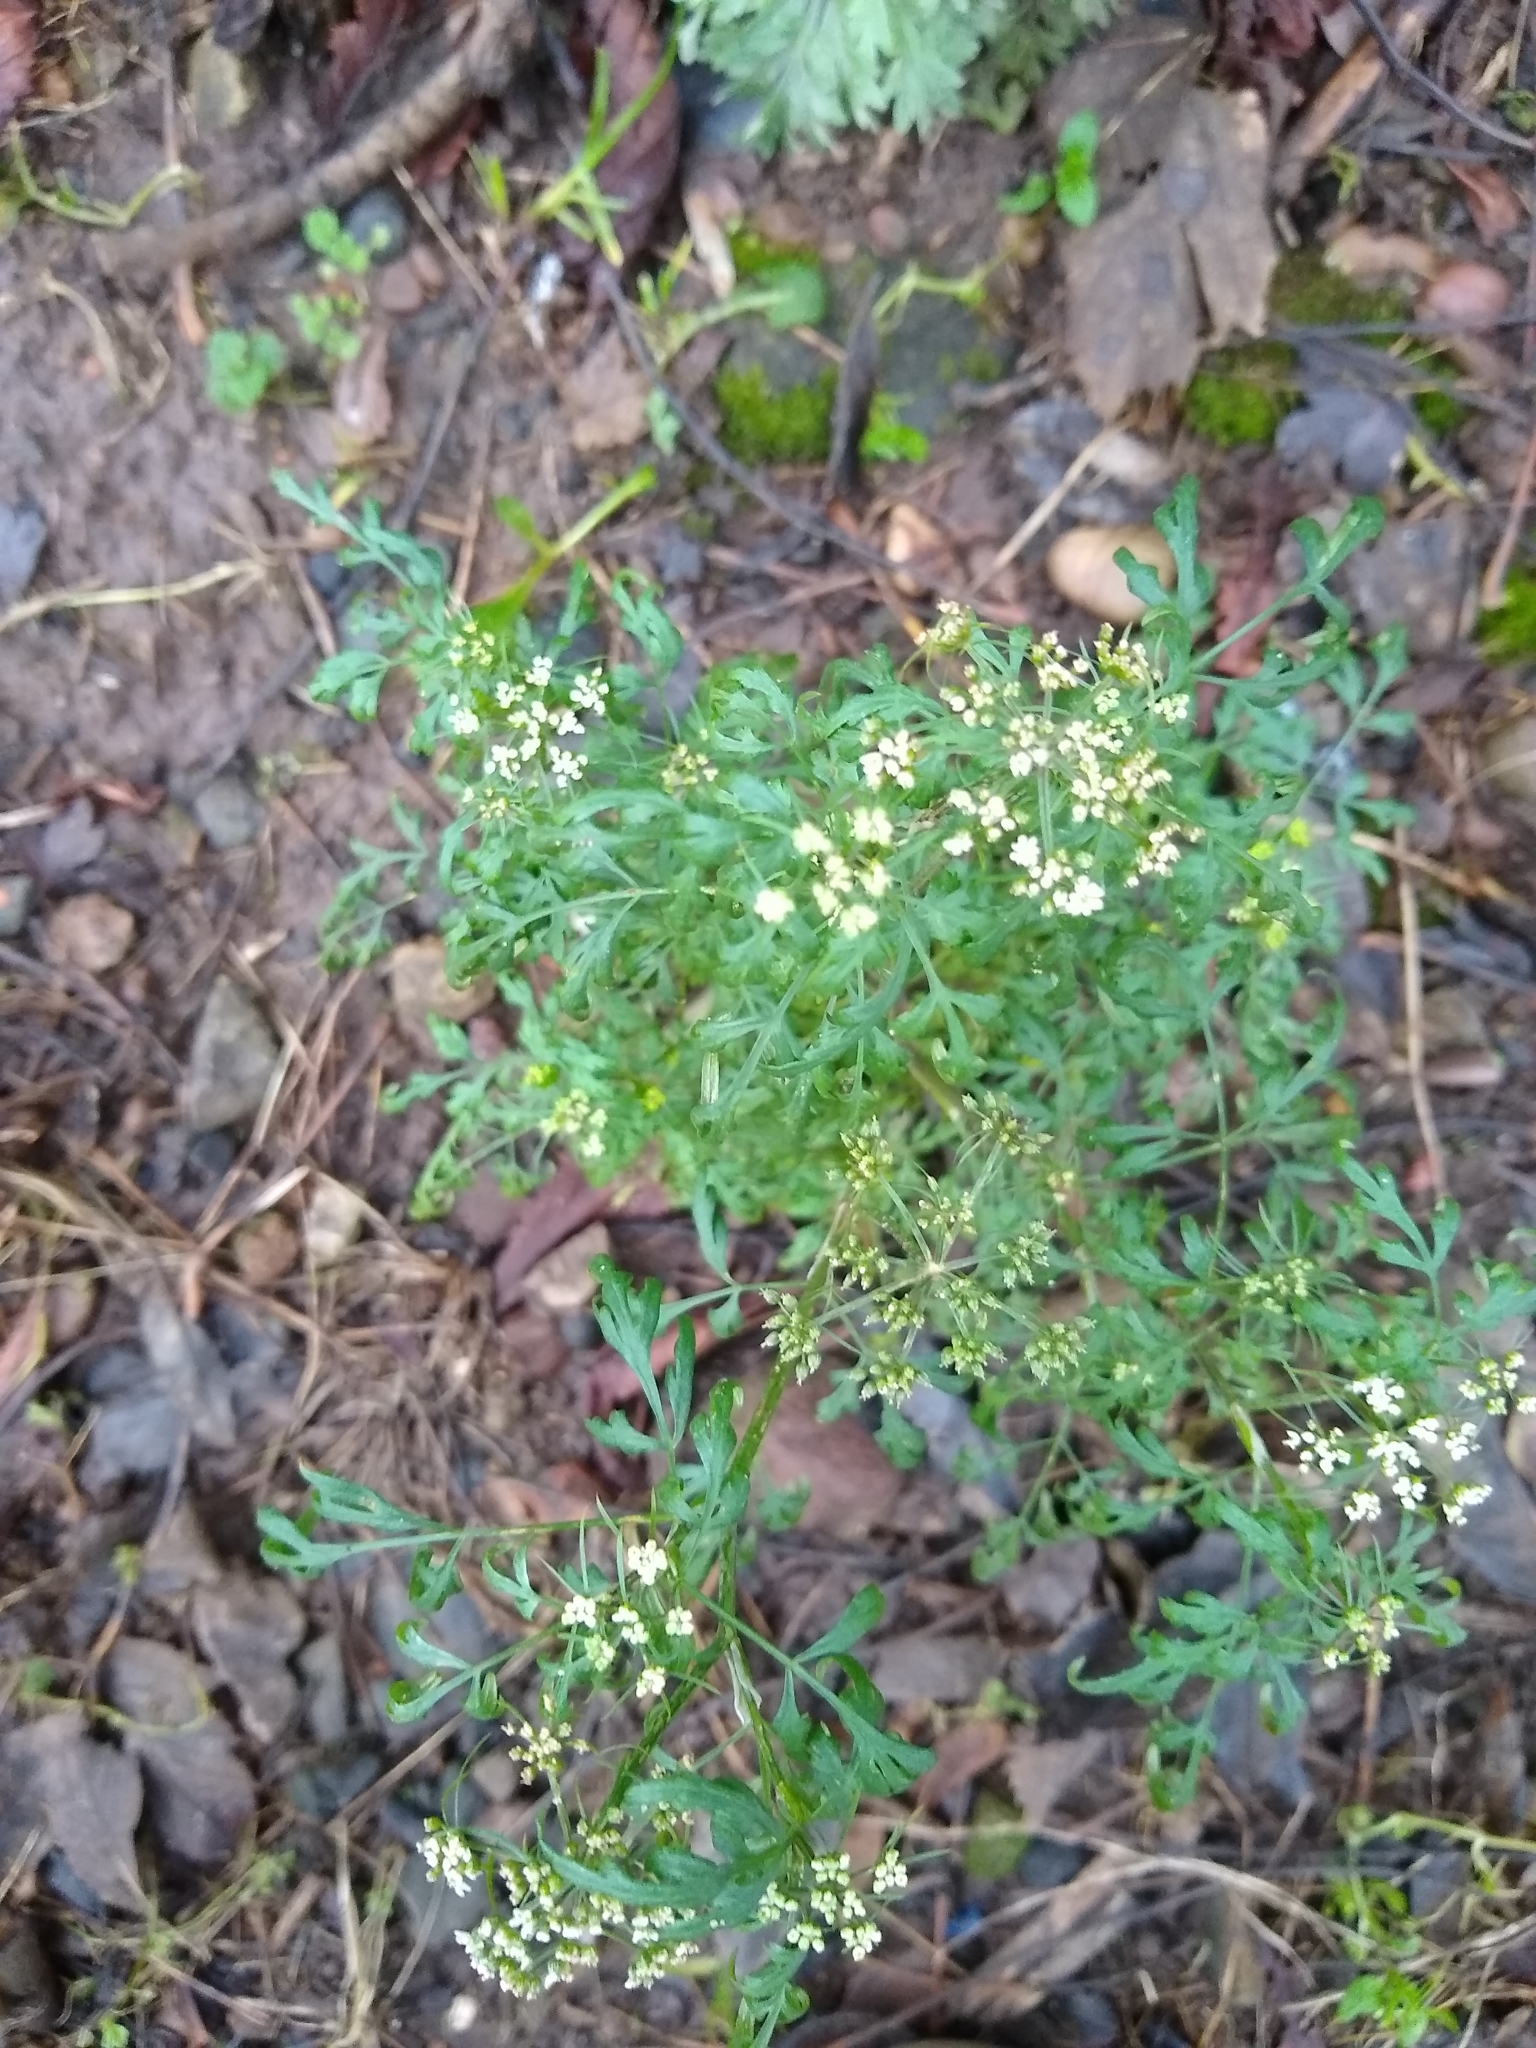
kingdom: Plantae
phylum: Tracheophyta
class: Magnoliopsida
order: Apiales
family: Apiaceae
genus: Aethusa
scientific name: Aethusa cynapium
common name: Fool's parsley
